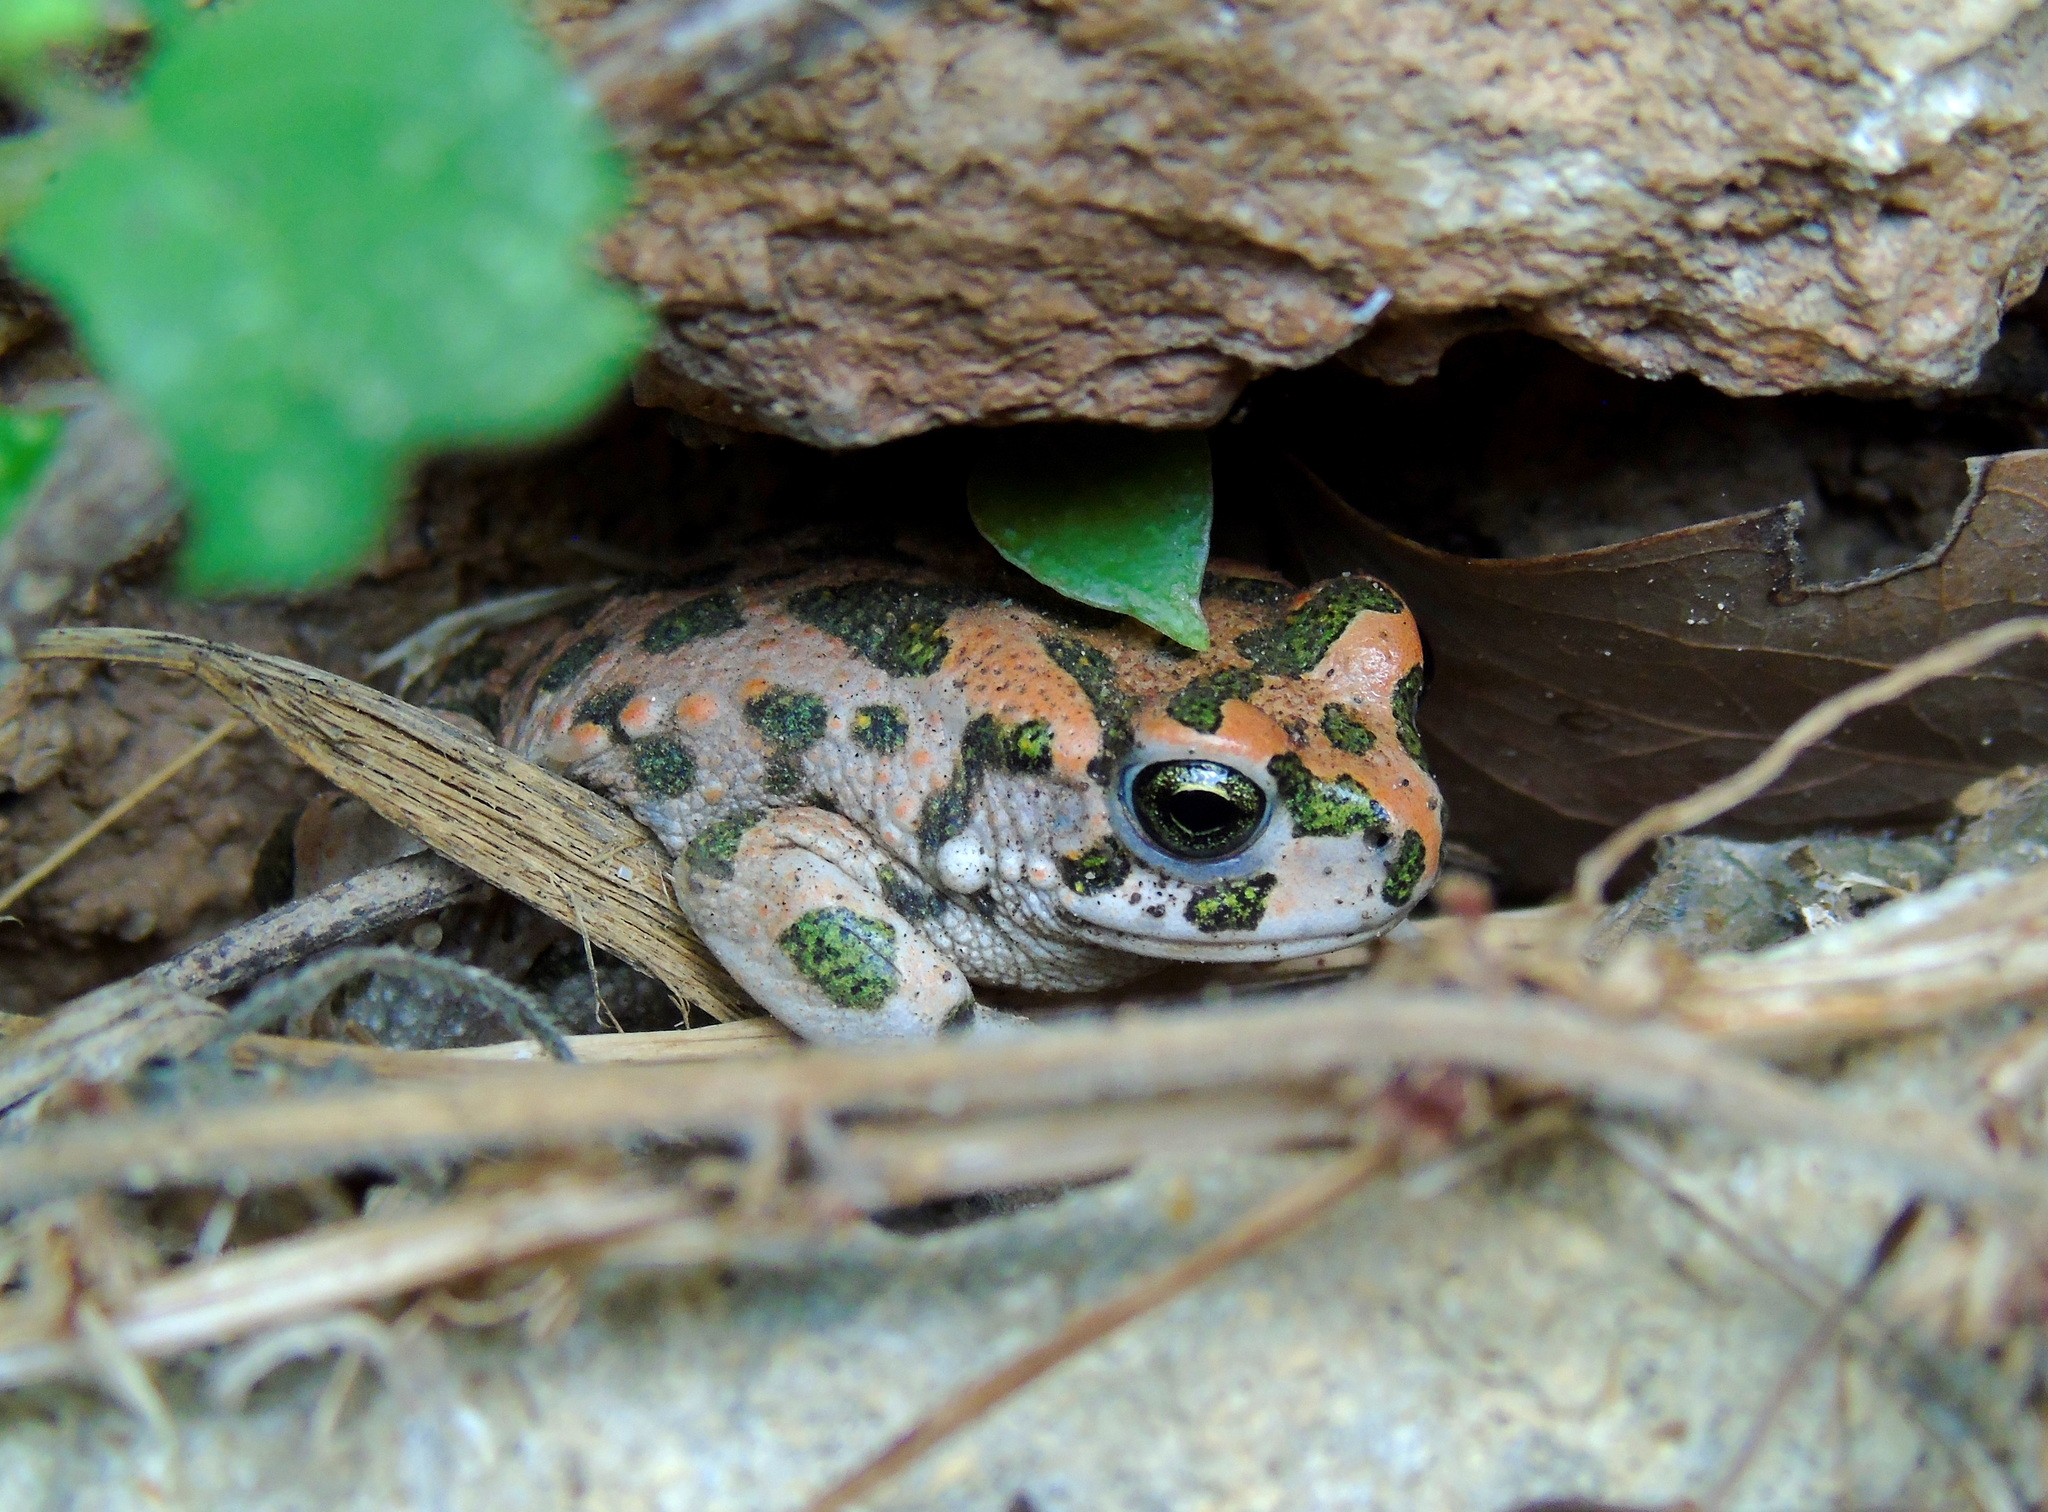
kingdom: Animalia
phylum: Chordata
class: Amphibia
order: Anura
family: Bufonidae
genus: Bufotes
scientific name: Bufotes viridis
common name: European green toad
